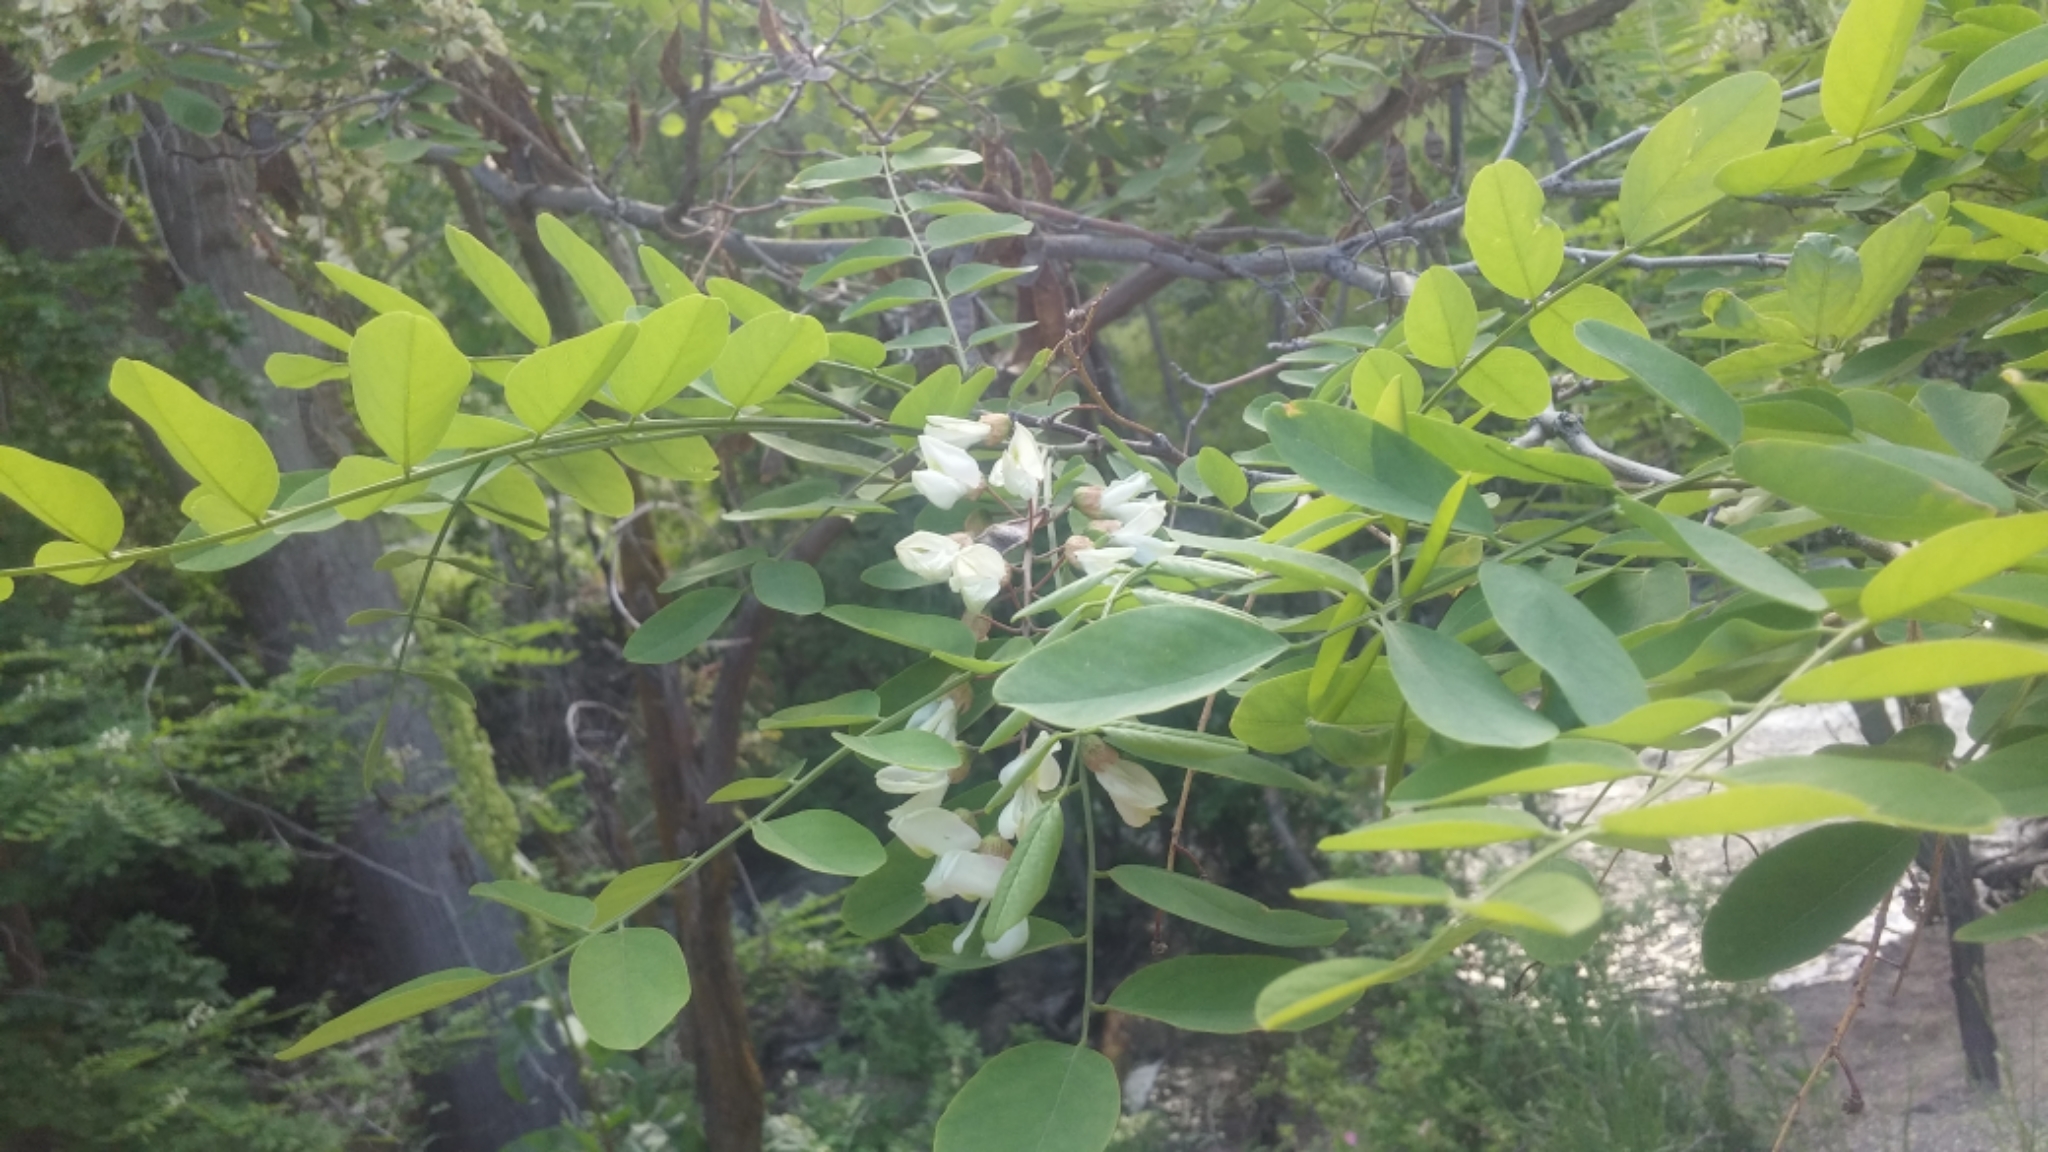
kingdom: Plantae
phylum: Tracheophyta
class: Magnoliopsida
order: Fabales
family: Fabaceae
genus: Robinia
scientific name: Robinia pseudoacacia
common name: Black locust
